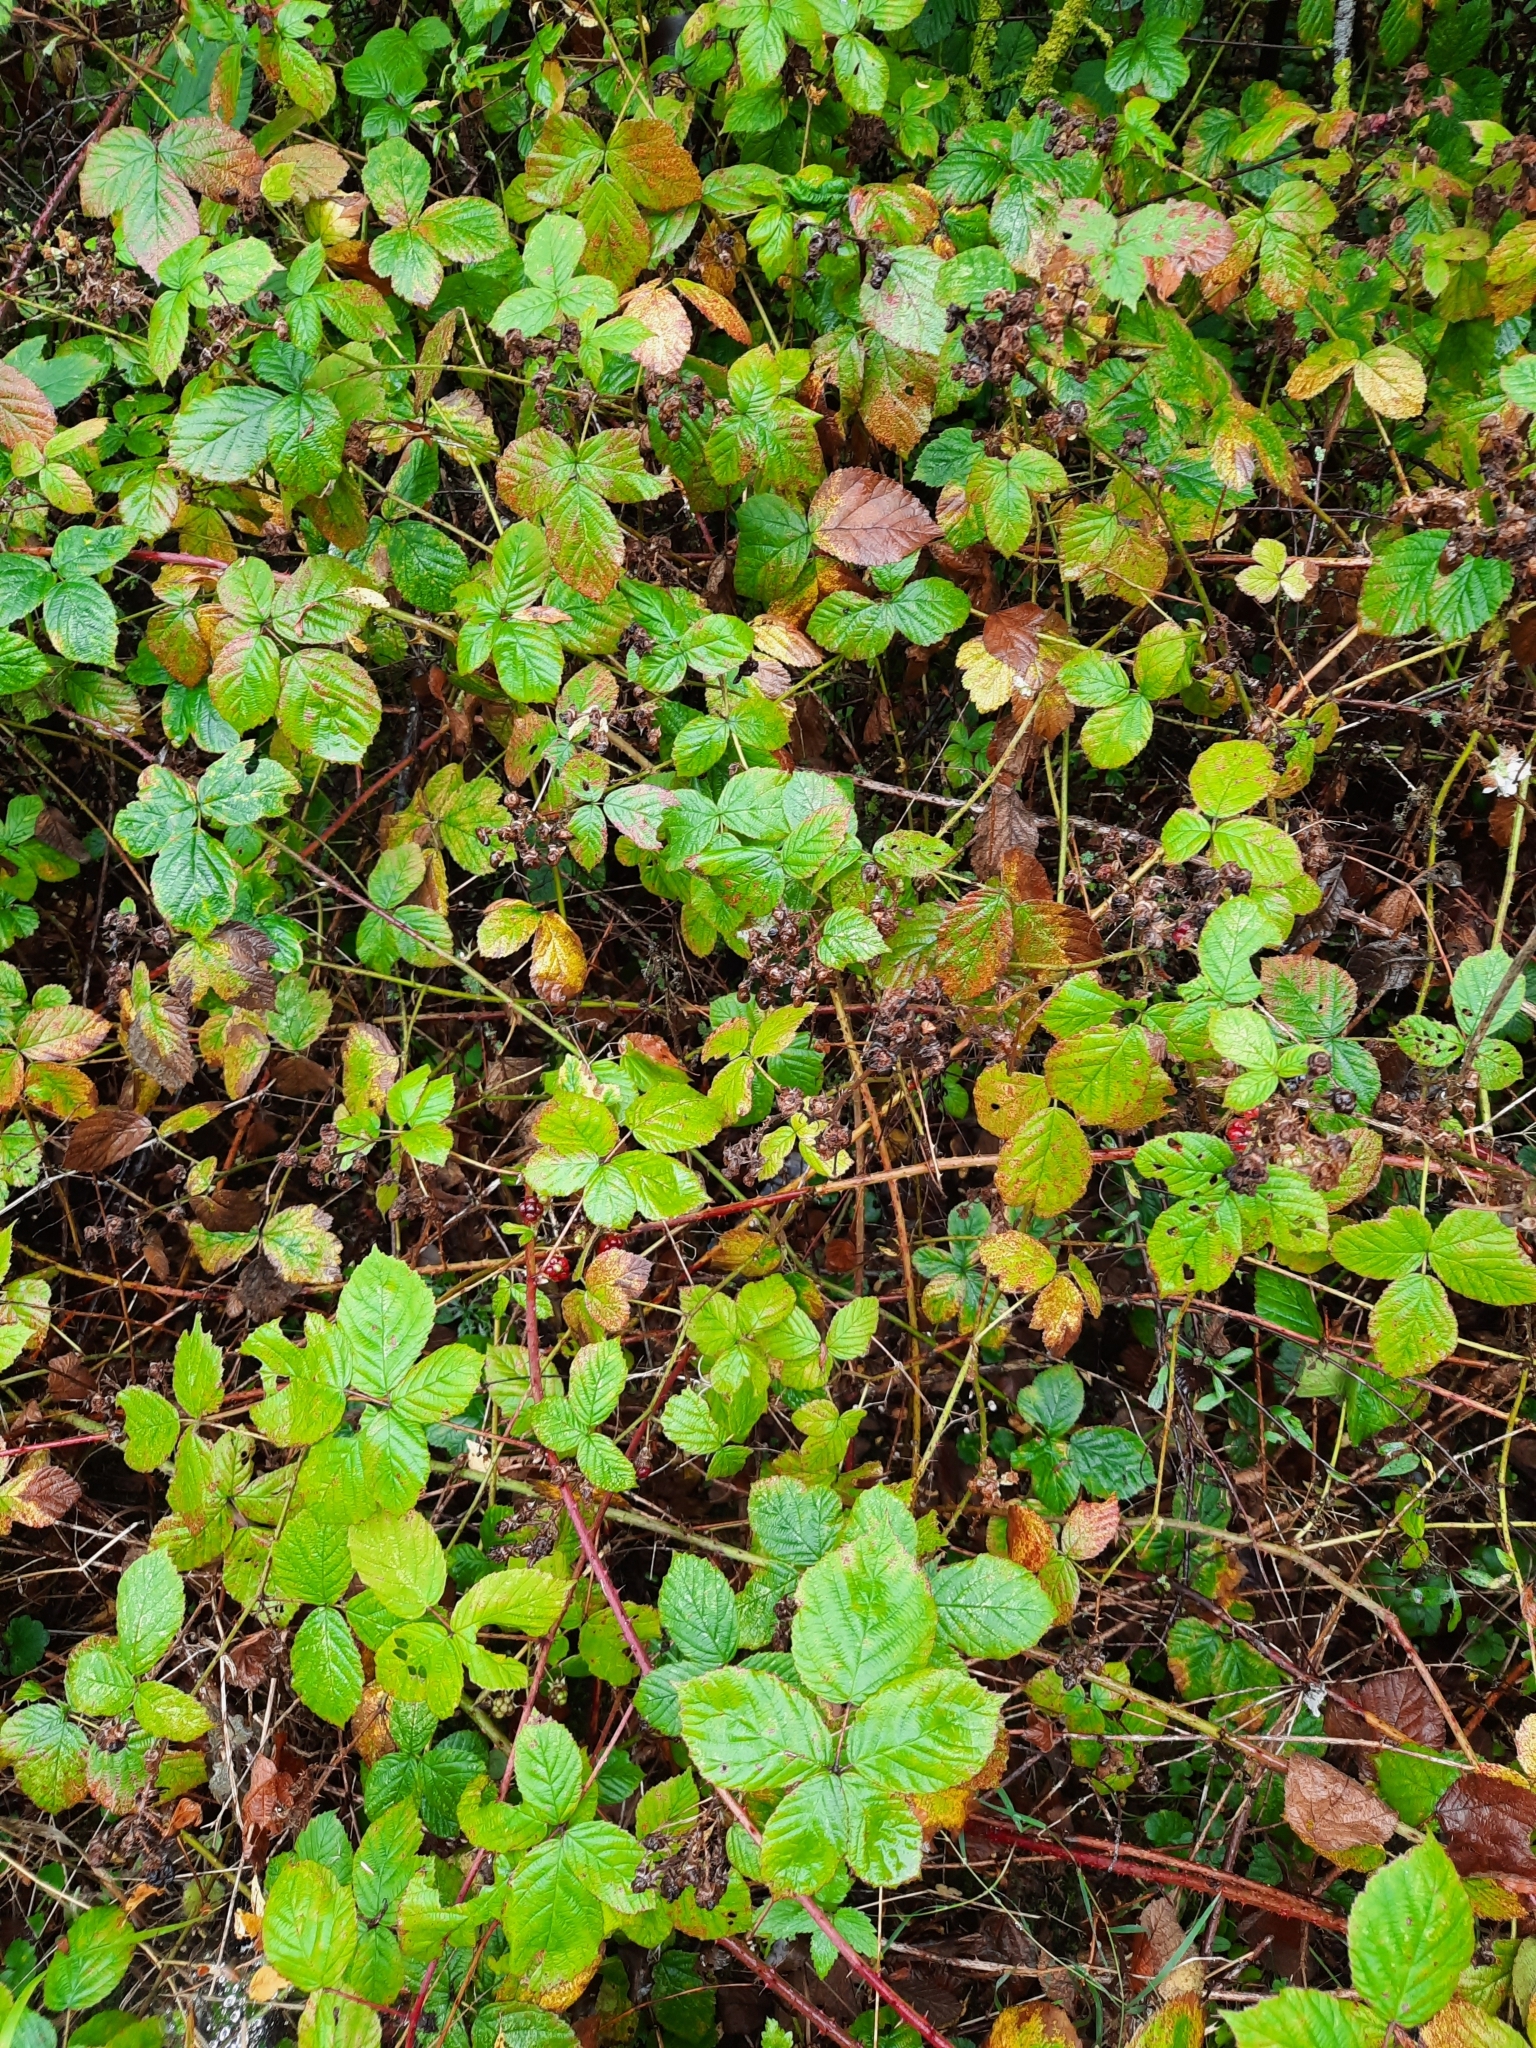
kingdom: Plantae
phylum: Tracheophyta
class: Magnoliopsida
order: Rosales
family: Rosaceae
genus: Rubus
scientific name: Rubus fruticosus
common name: Blackberry, bramble
